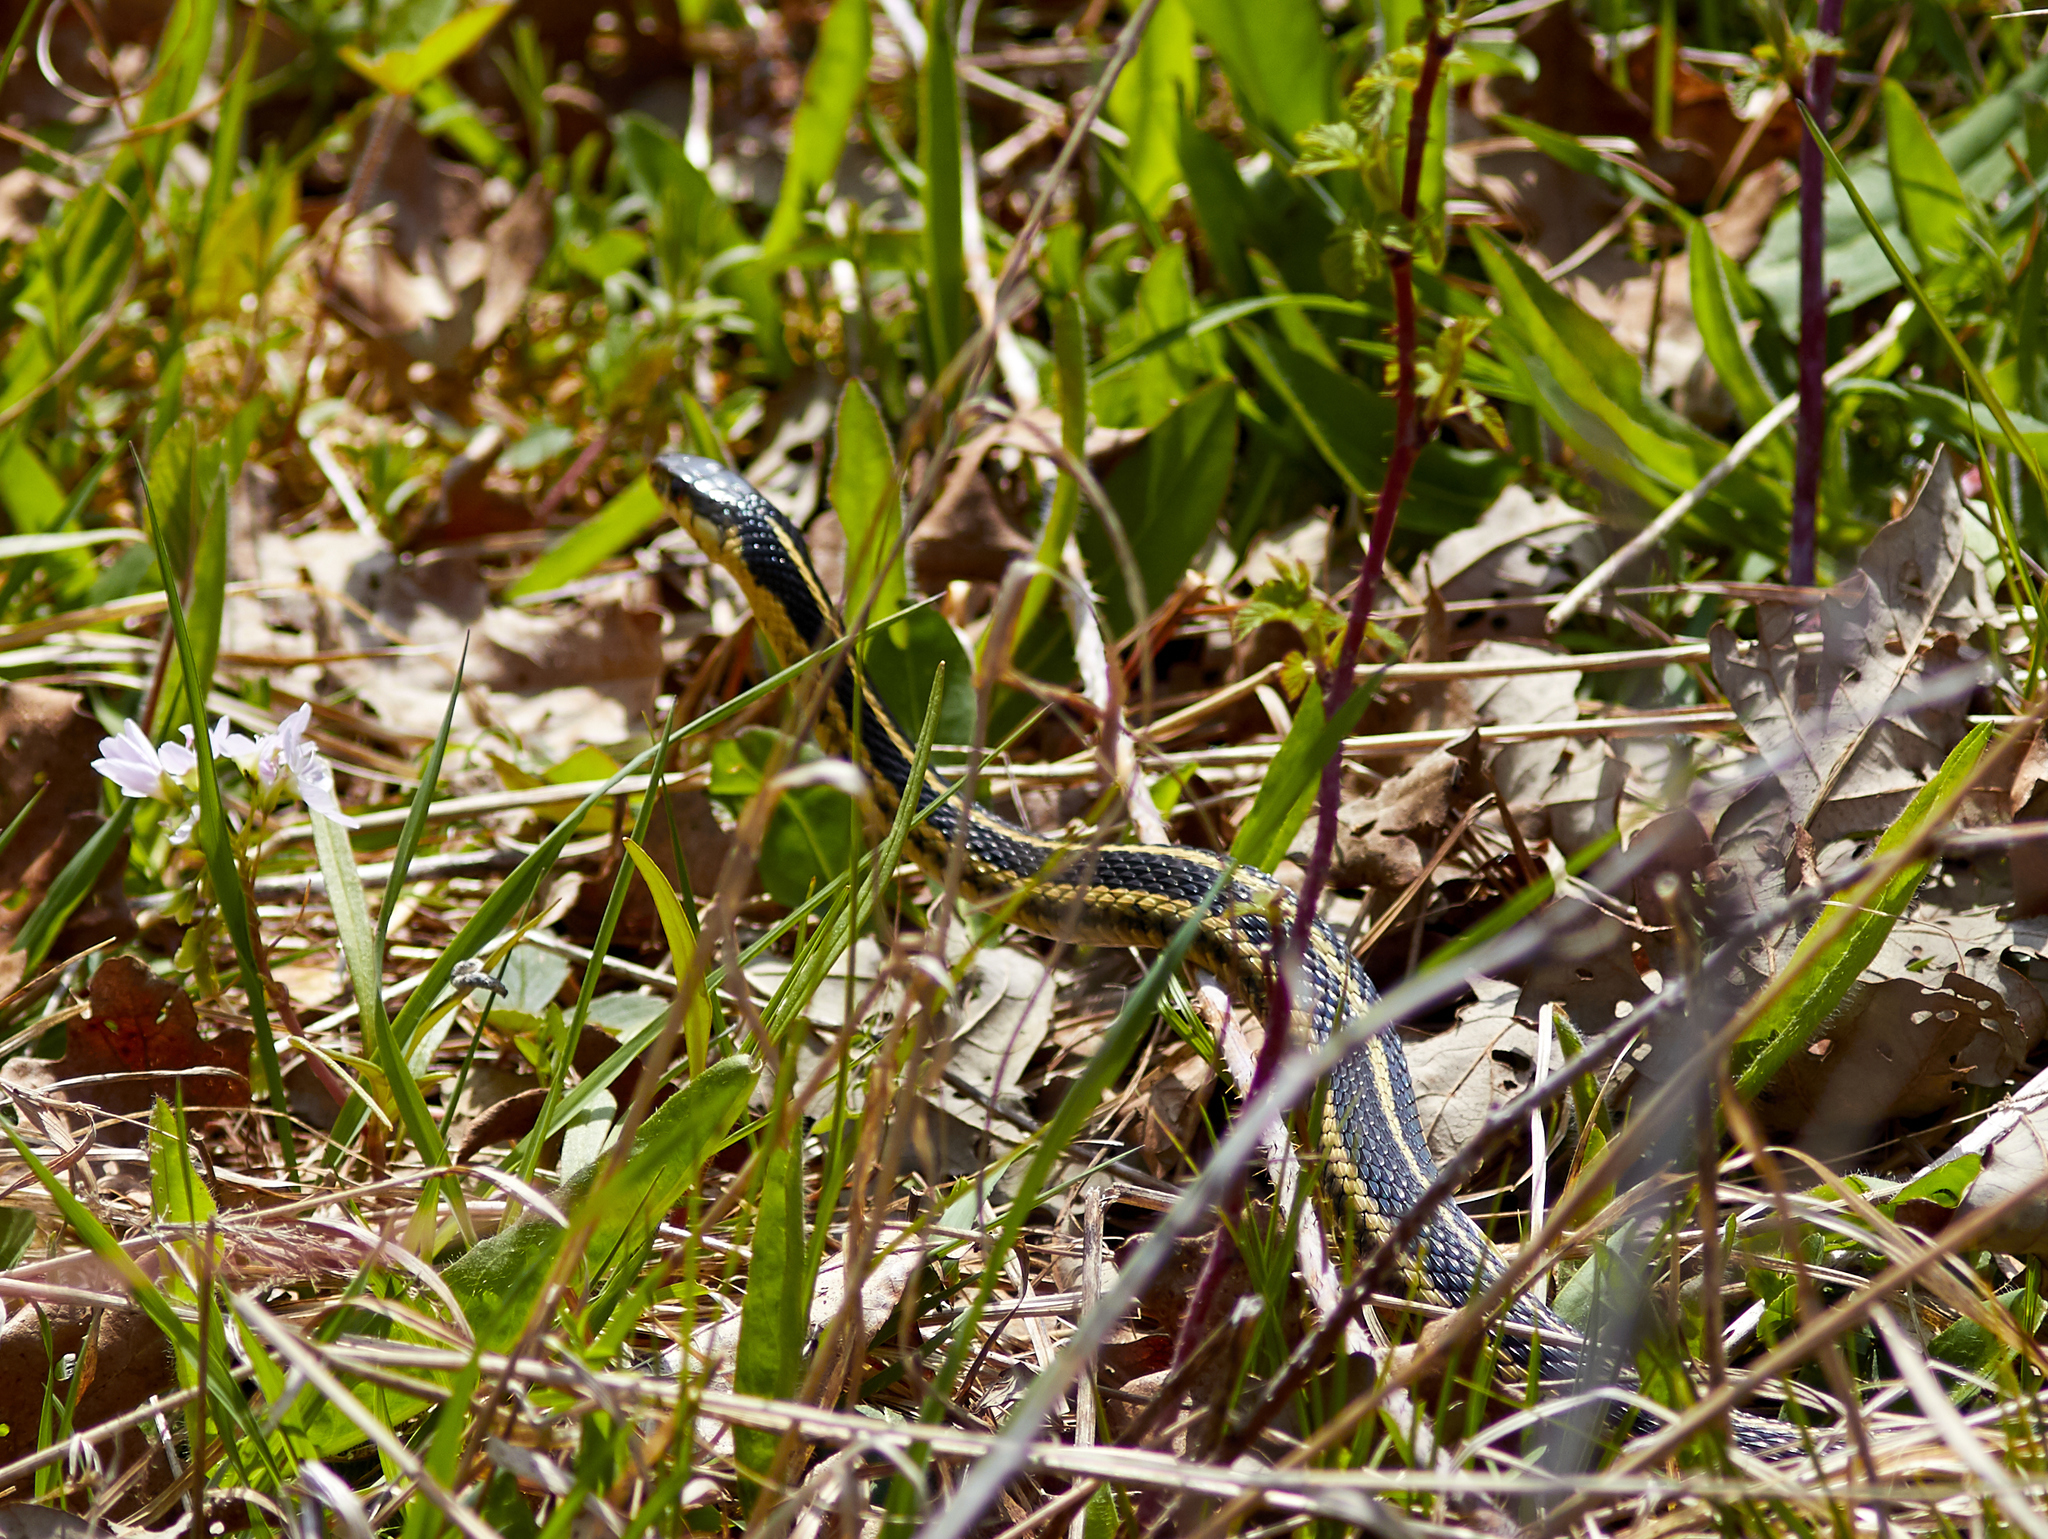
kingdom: Animalia
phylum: Chordata
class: Squamata
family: Colubridae
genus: Thamnophis
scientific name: Thamnophis sirtalis
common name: Common garter snake
